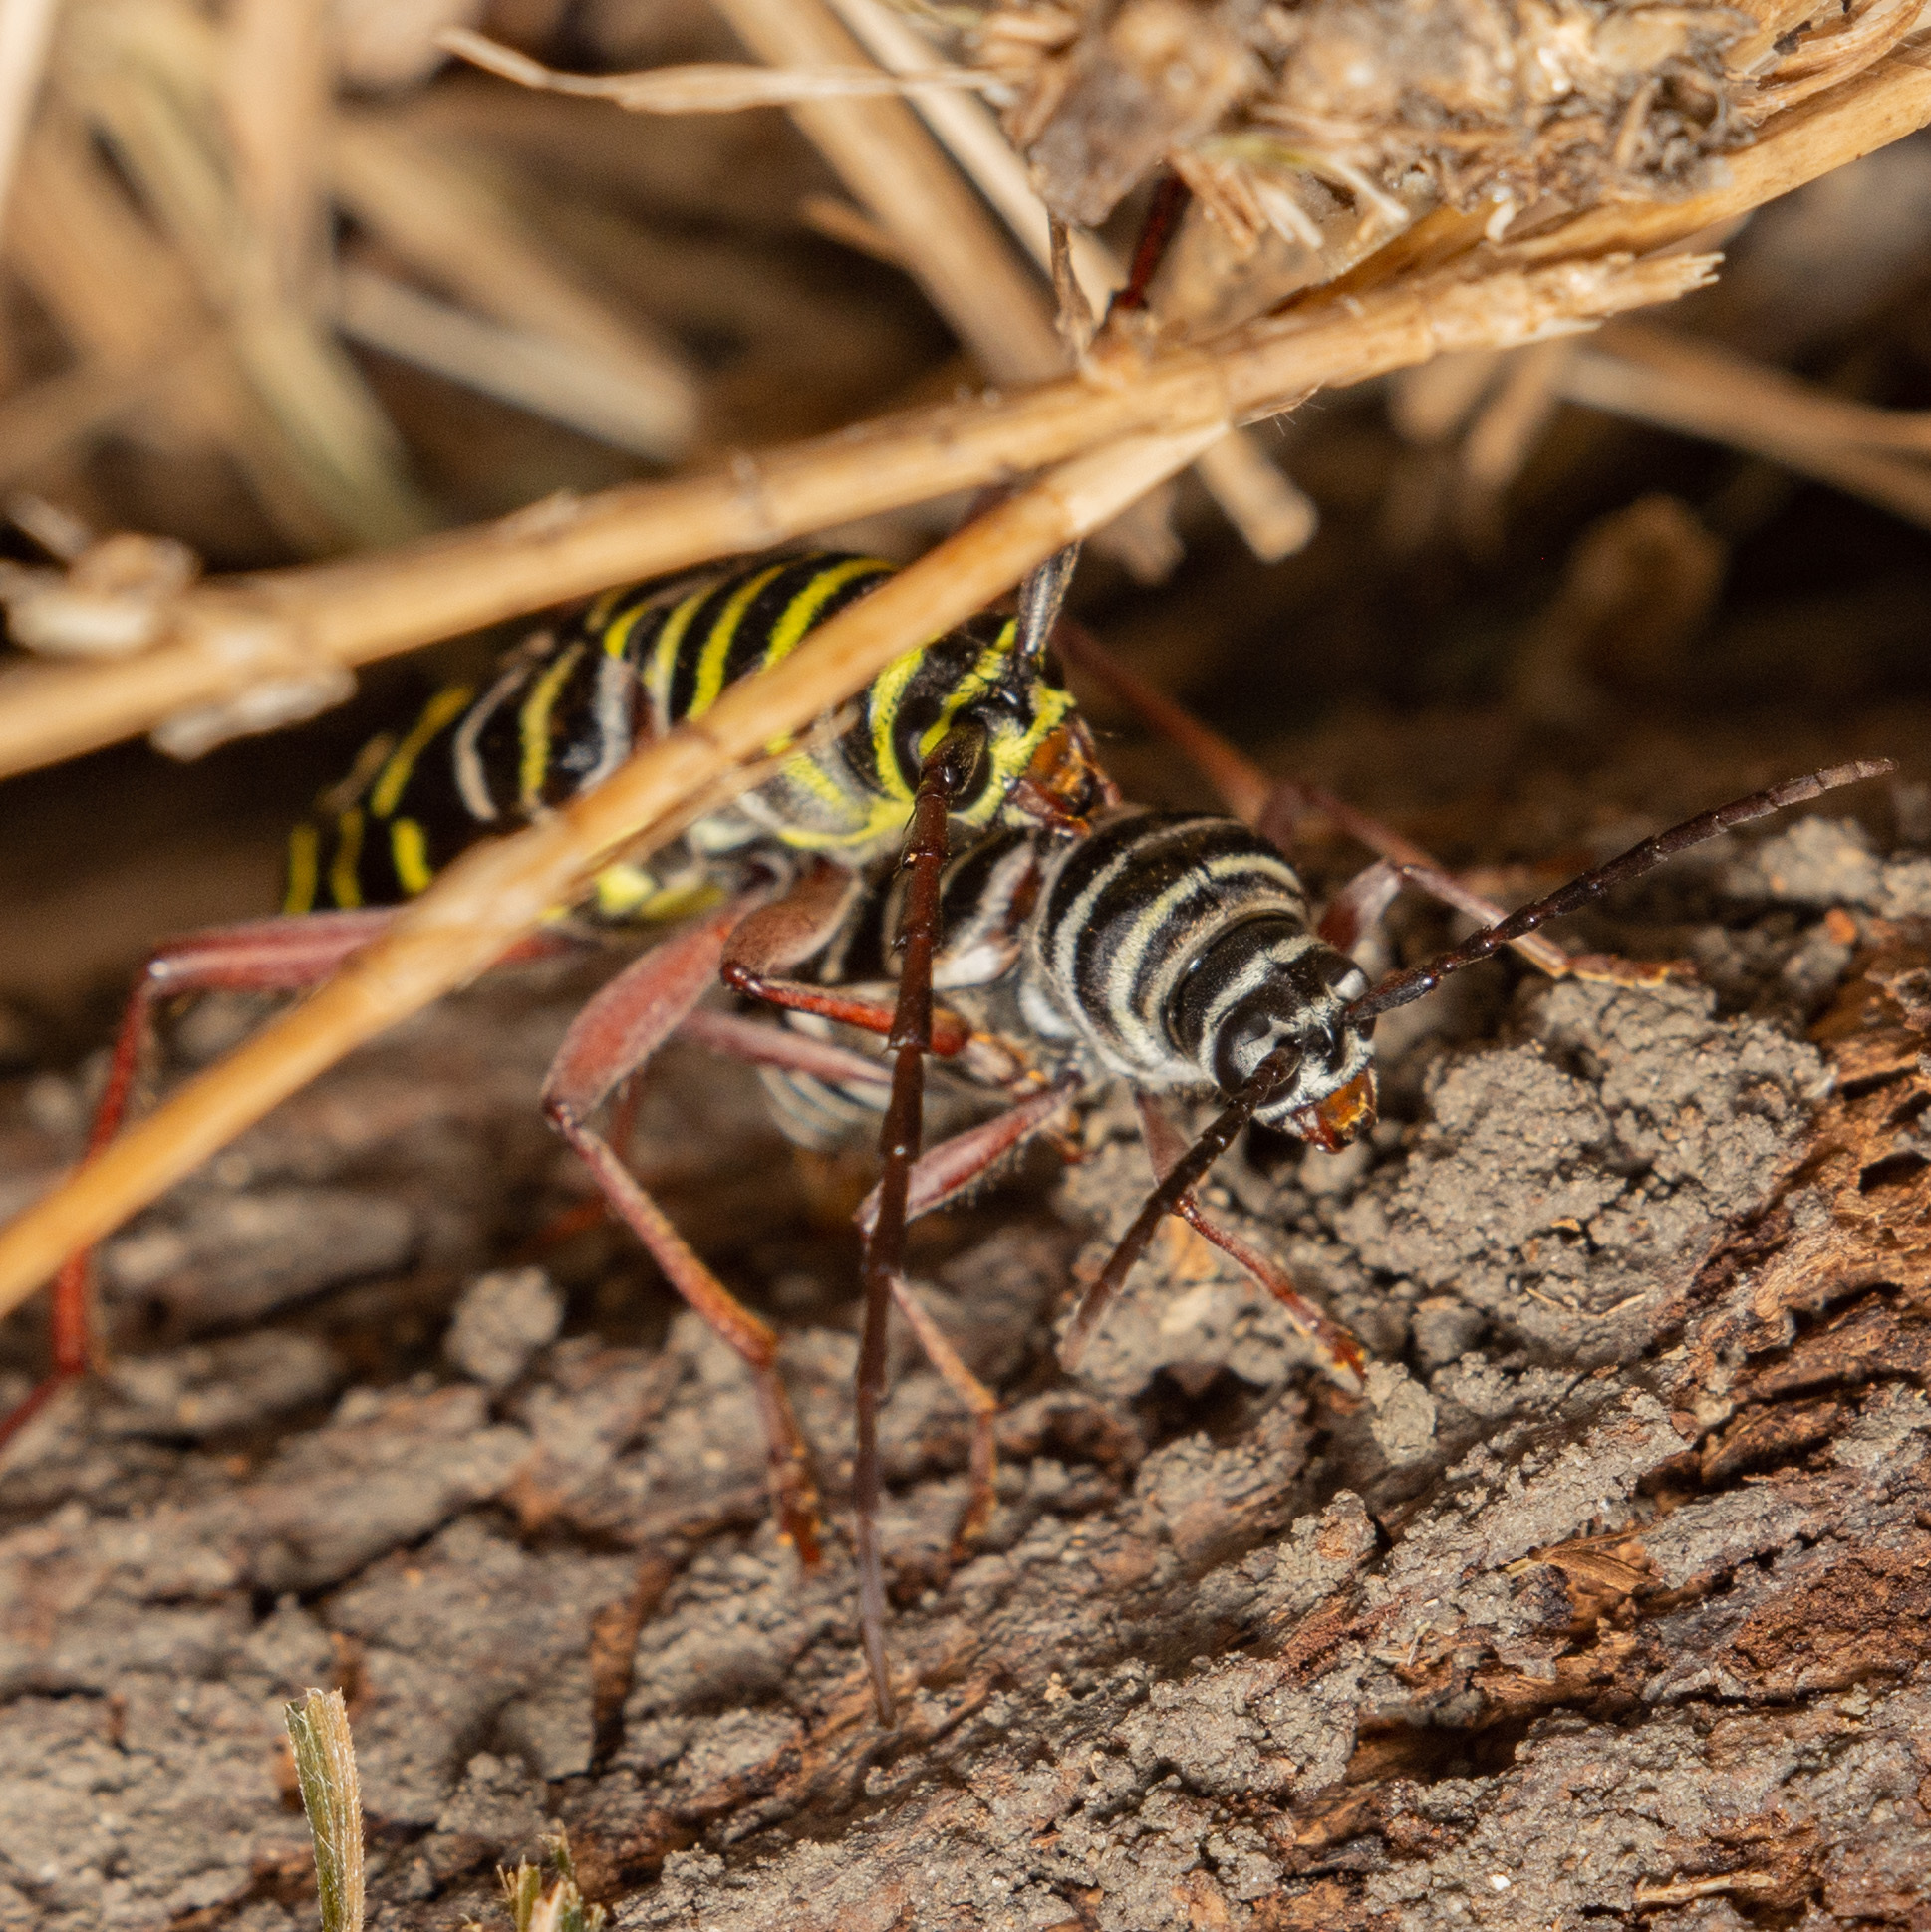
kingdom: Animalia
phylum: Arthropoda
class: Insecta
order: Coleoptera
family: Cerambycidae
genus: Megacyllene
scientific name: Megacyllene caryae
